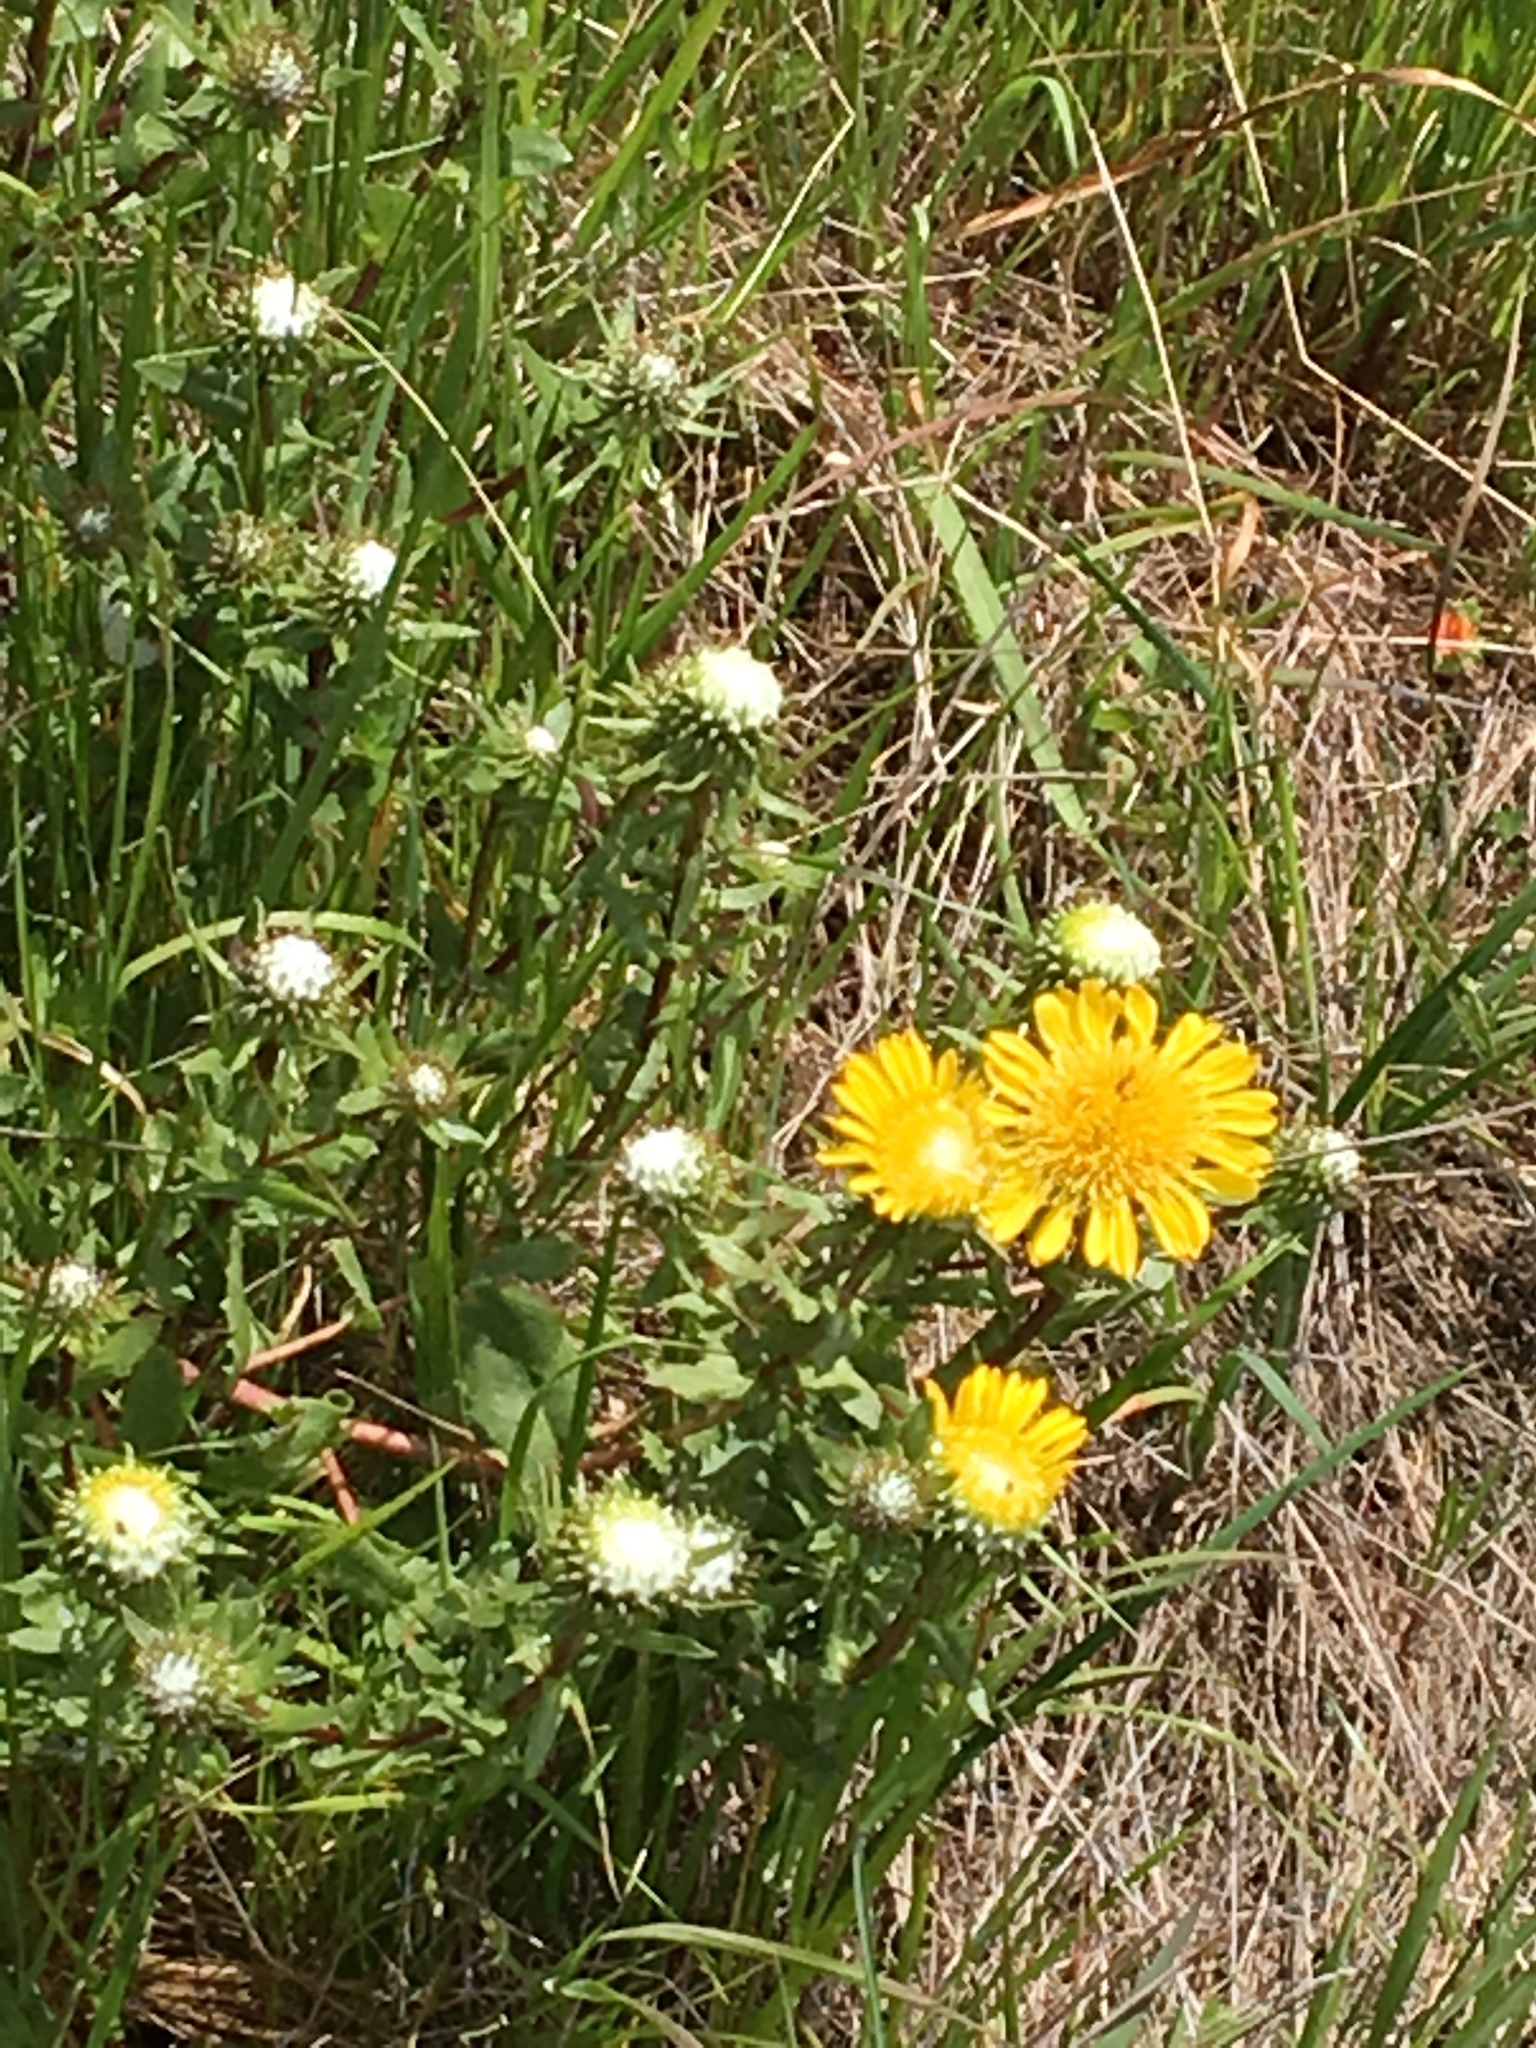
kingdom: Plantae
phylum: Tracheophyta
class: Magnoliopsida
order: Asterales
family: Asteraceae
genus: Grindelia
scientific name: Grindelia hirsutula
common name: Hairy gumweed
